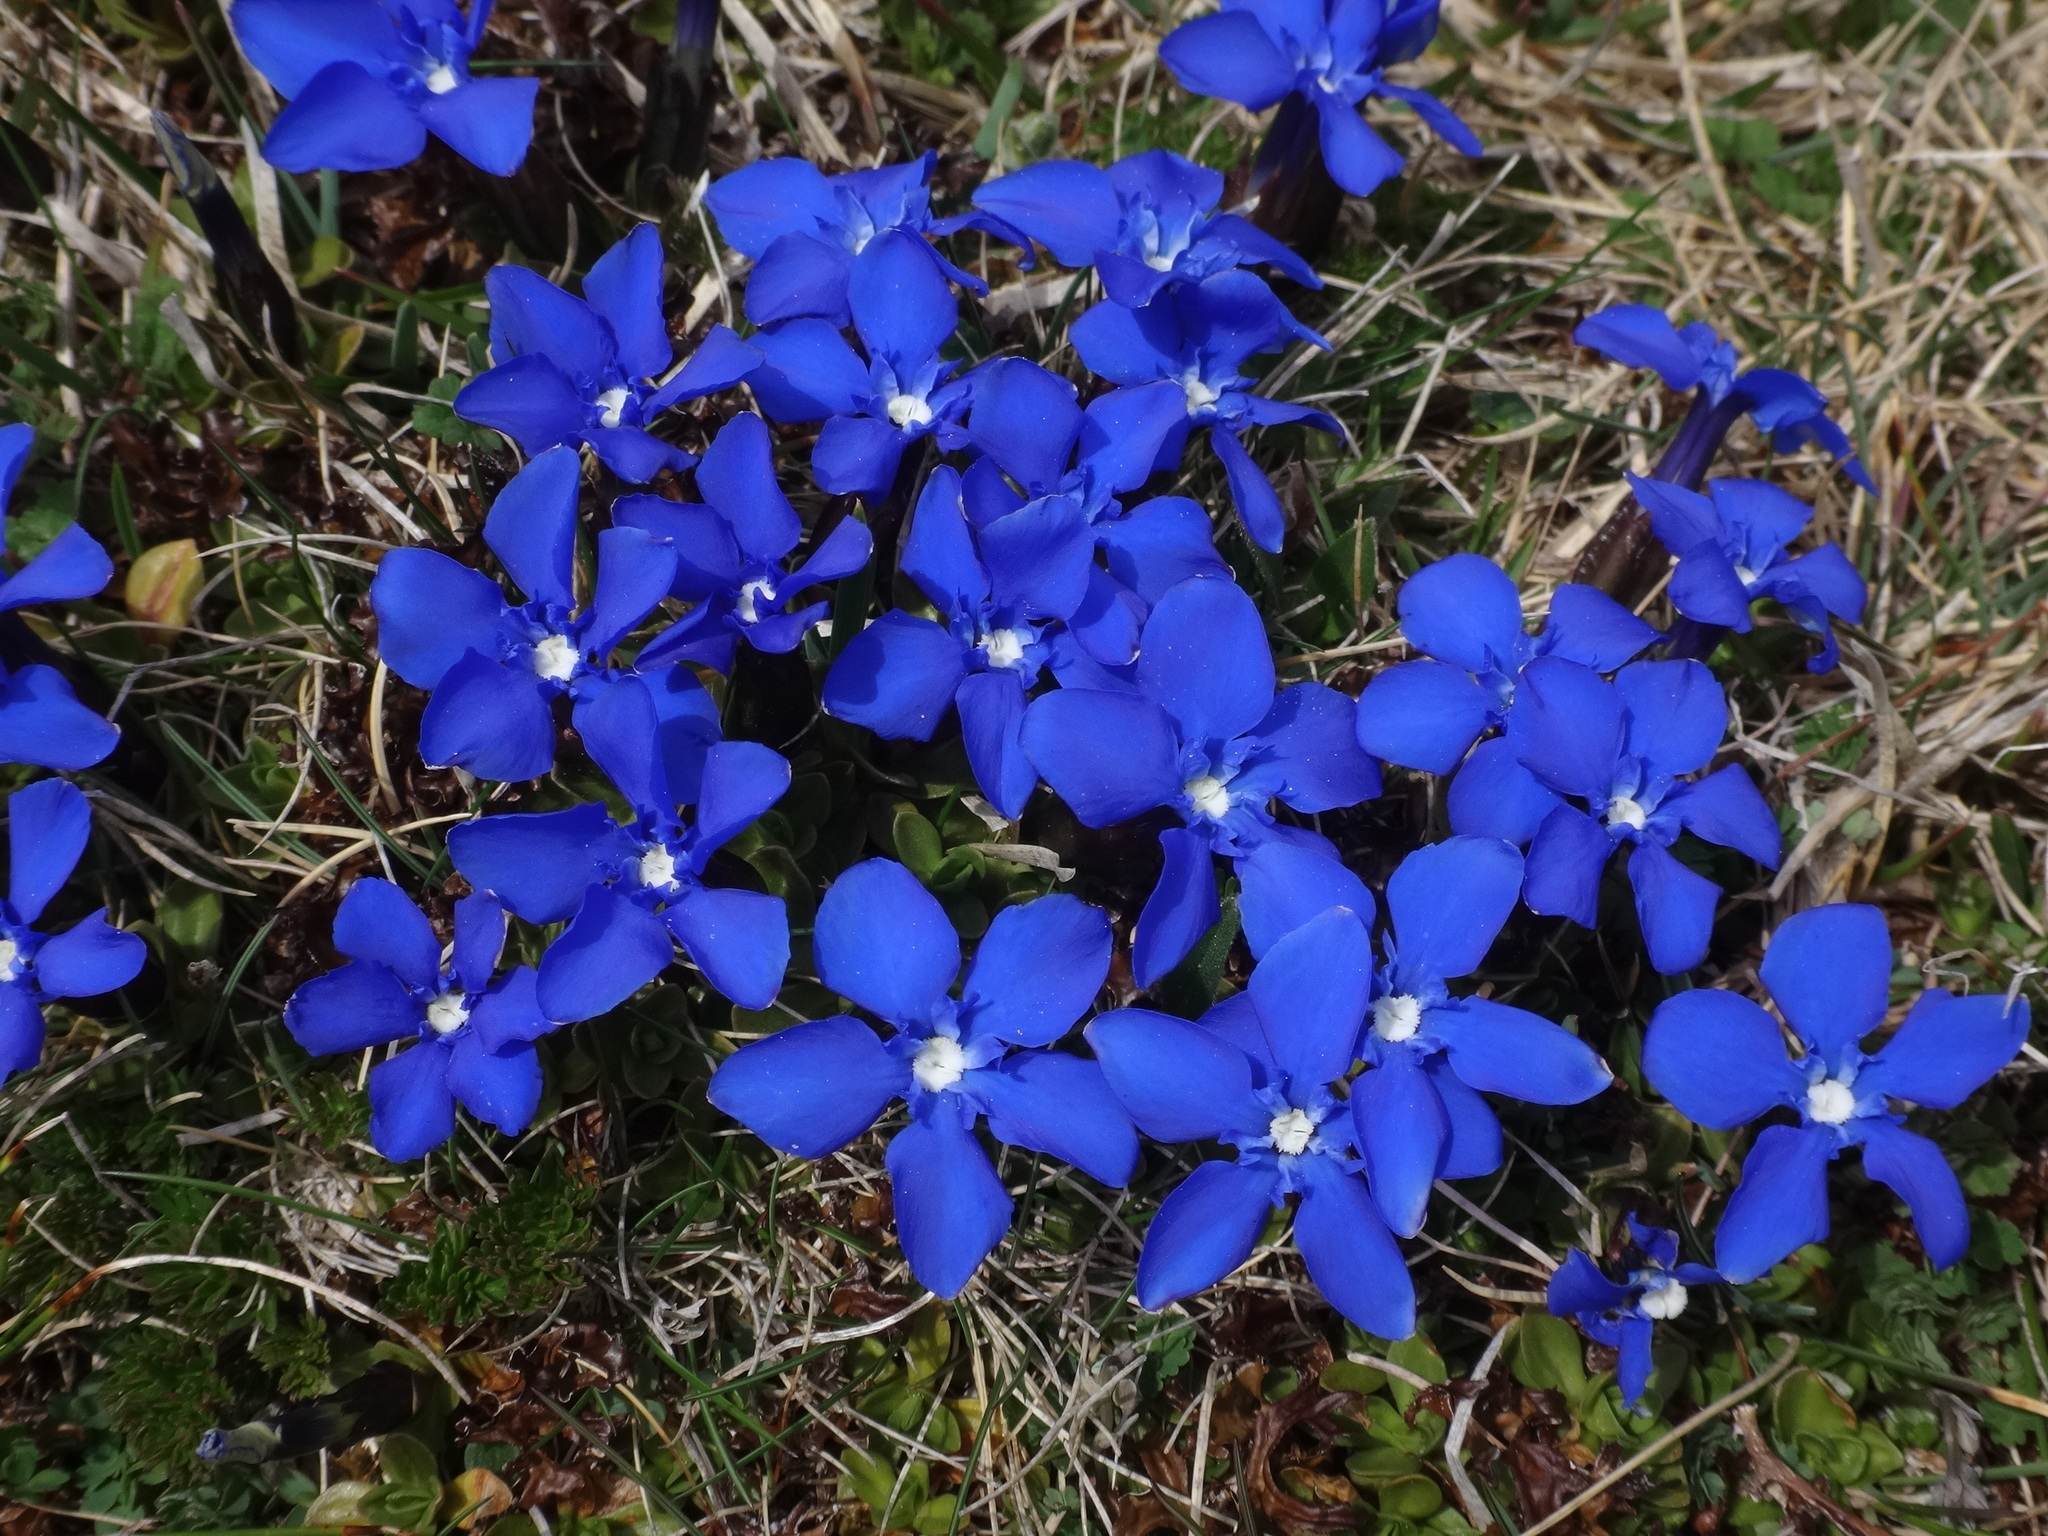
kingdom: Plantae
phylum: Tracheophyta
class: Magnoliopsida
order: Gentianales
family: Gentianaceae
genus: Gentiana
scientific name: Gentiana orbicularis
